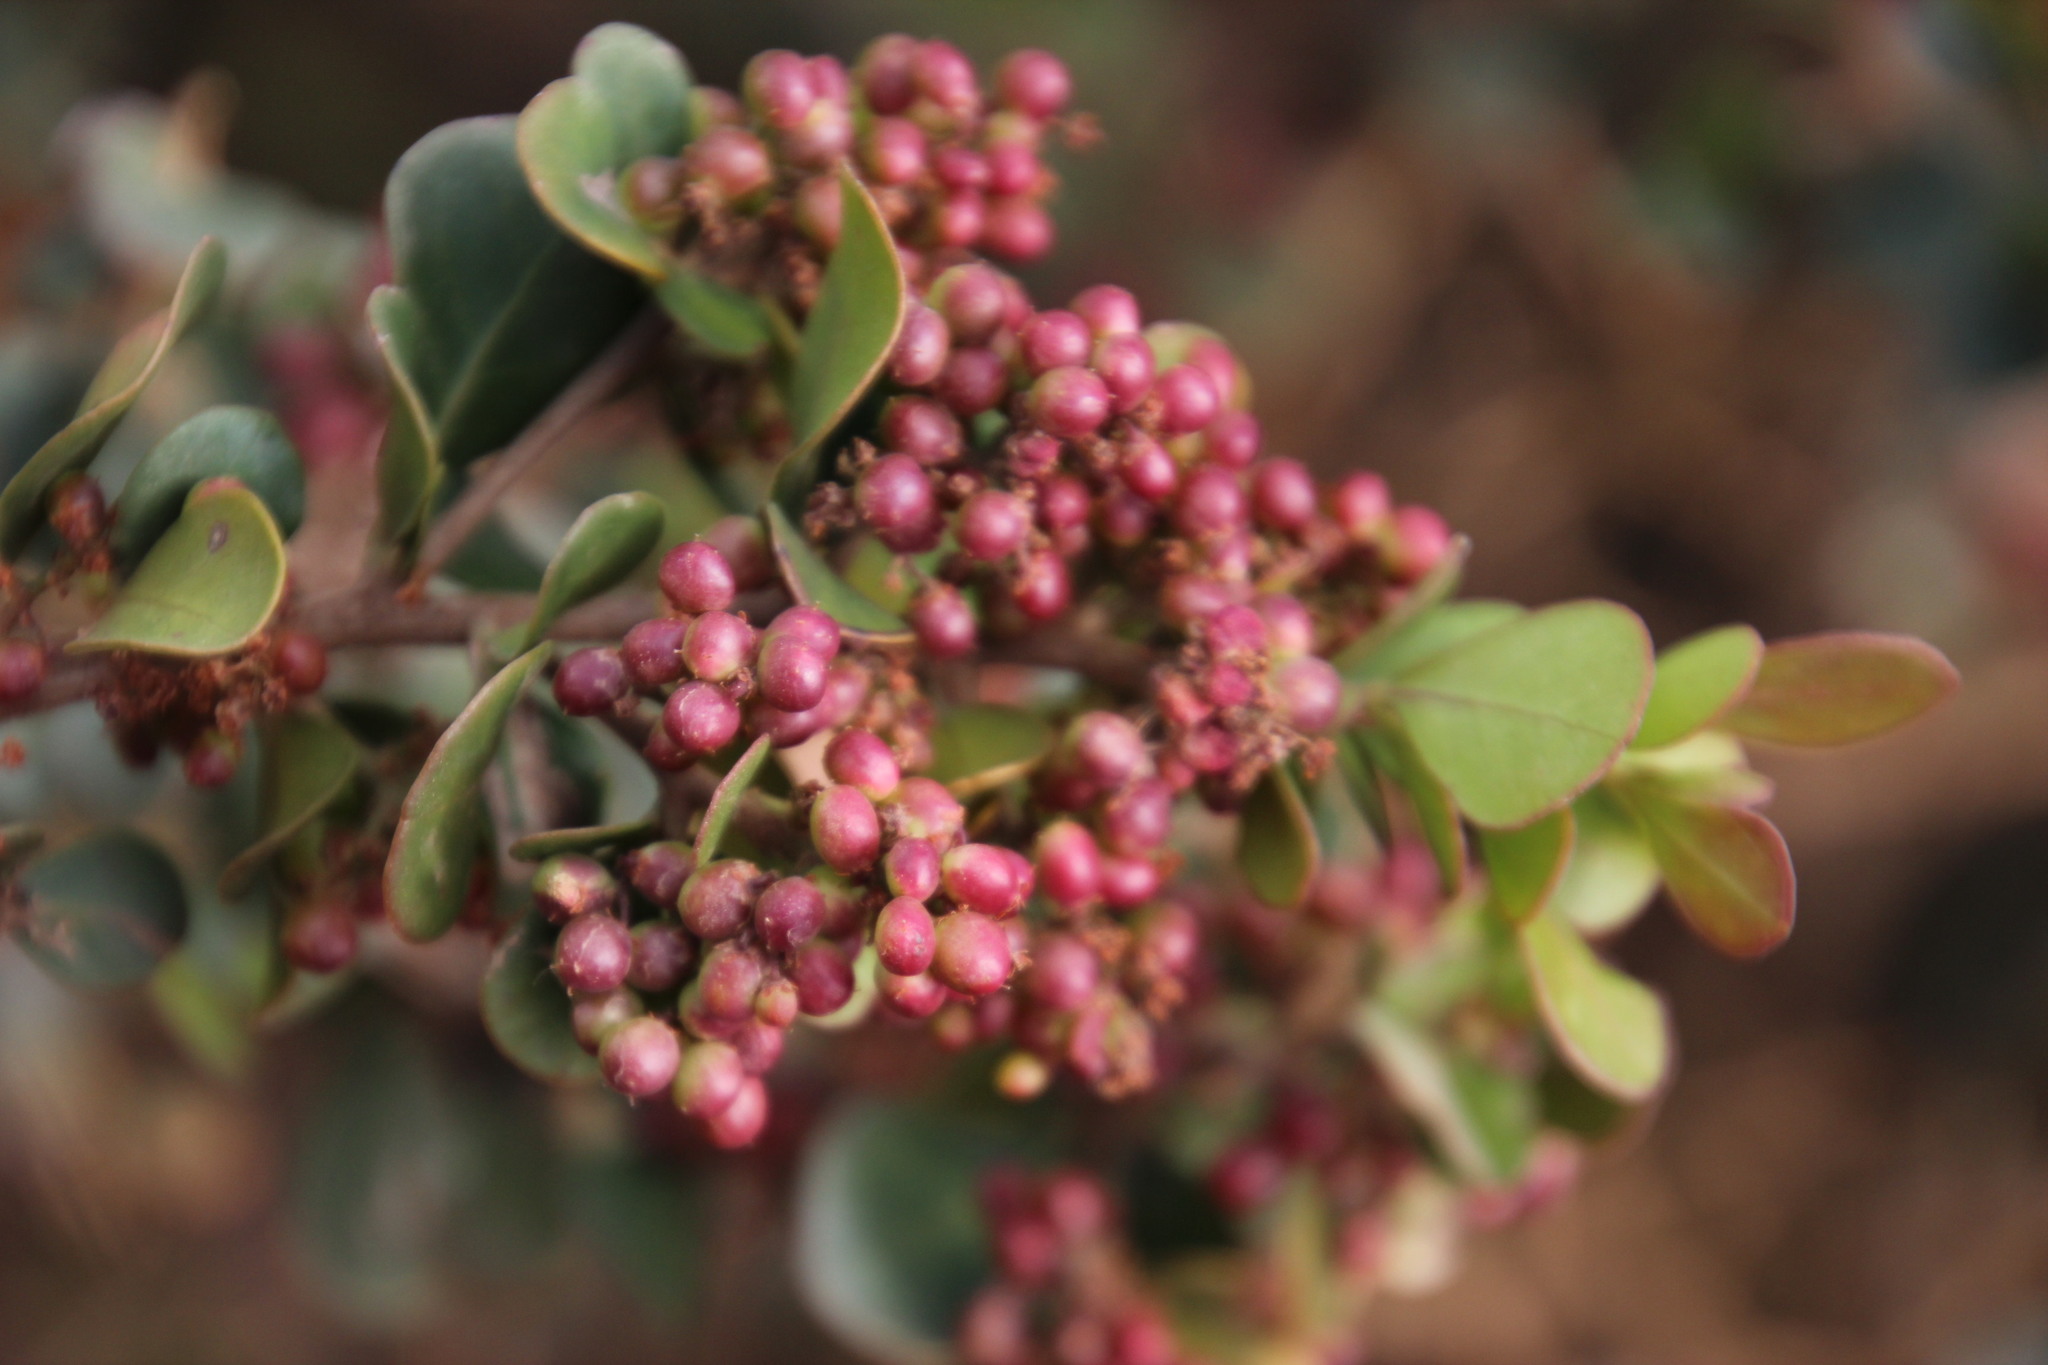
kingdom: Plantae
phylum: Tracheophyta
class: Magnoliopsida
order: Sapindales
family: Anacardiaceae
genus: Searsia
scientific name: Searsia lucida
